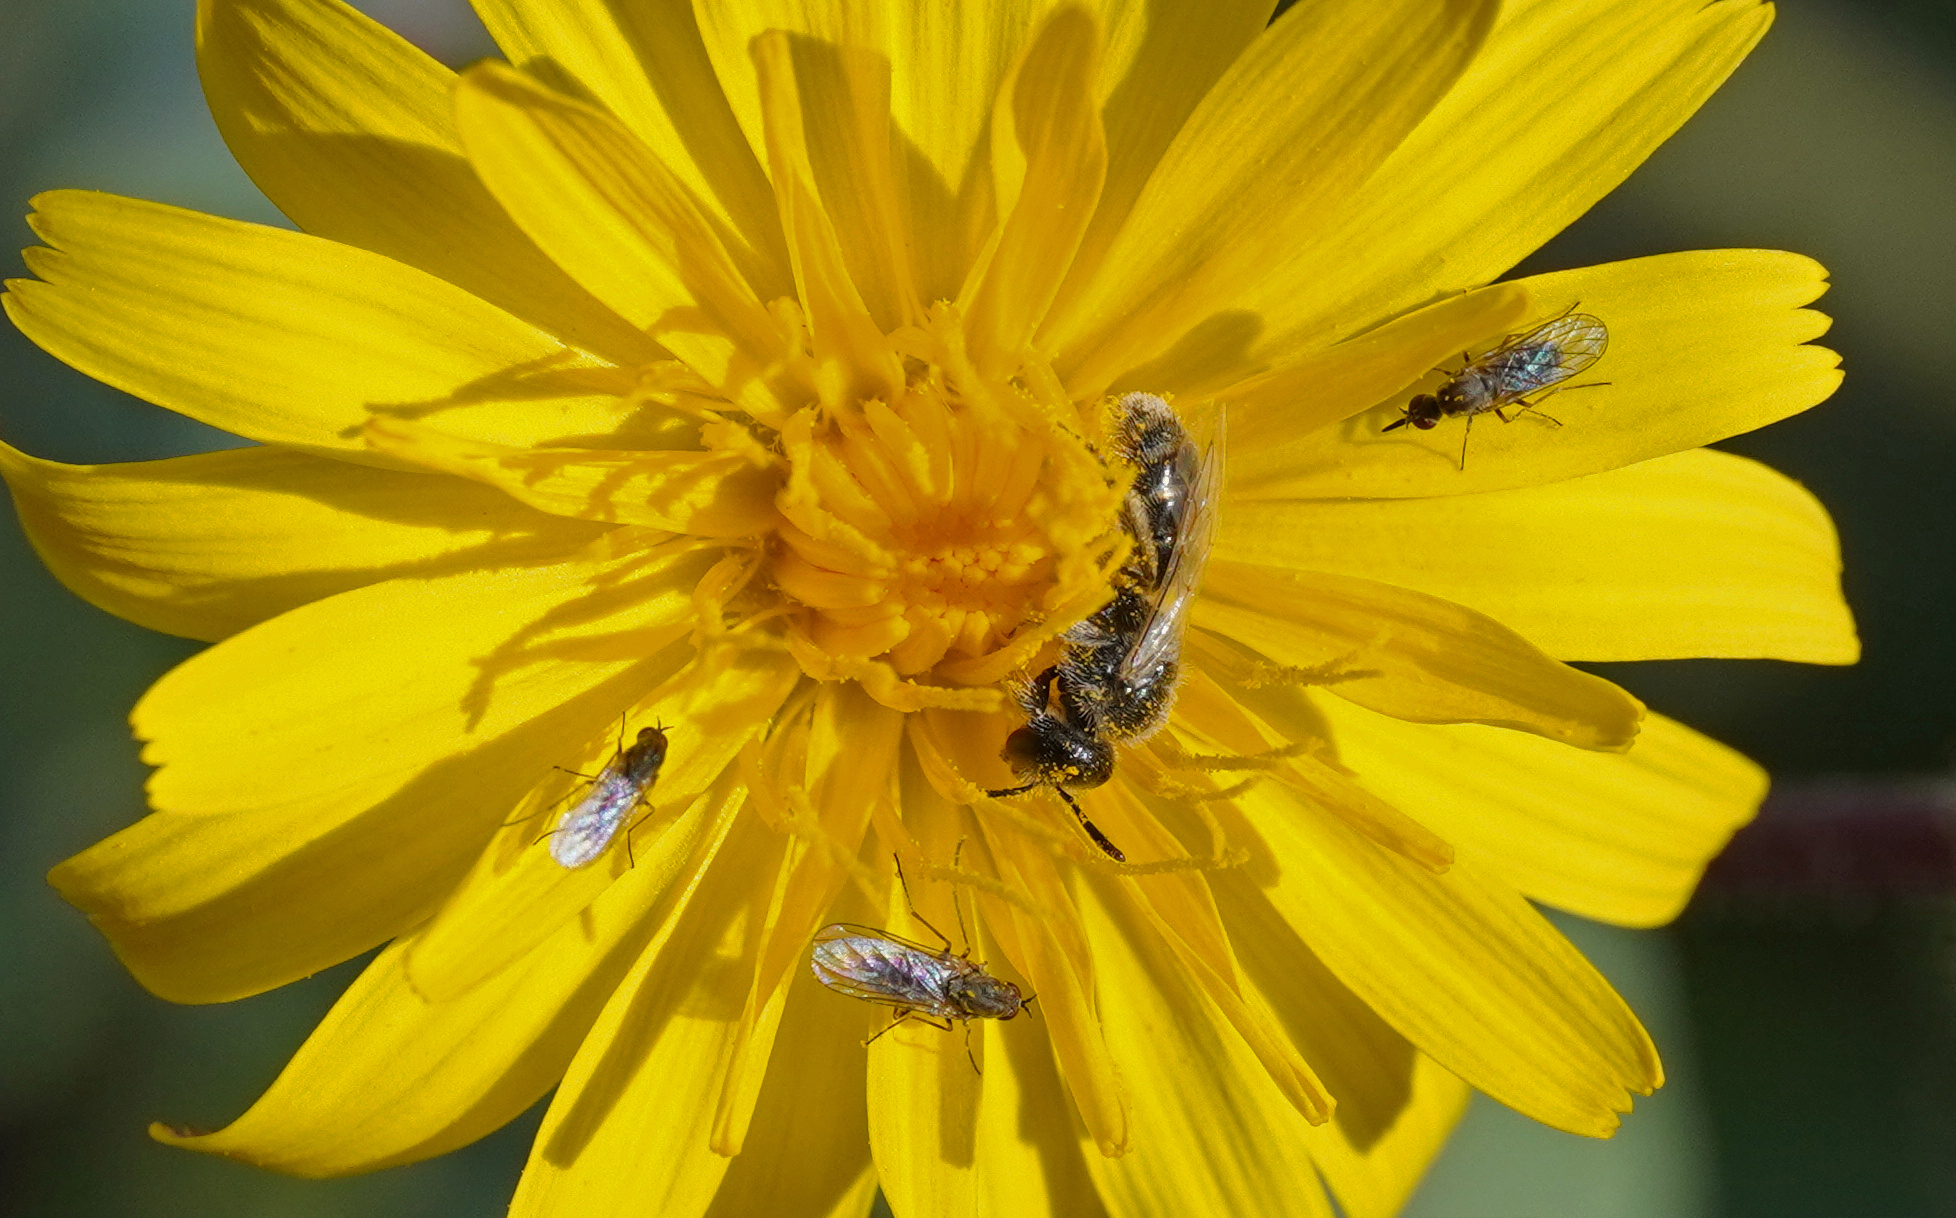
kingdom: Animalia
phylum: Arthropoda
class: Insecta
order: Hymenoptera
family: Halictidae
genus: Lasioglossum
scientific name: Lasioglossum brevicorne
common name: Short-horned furrow bee
